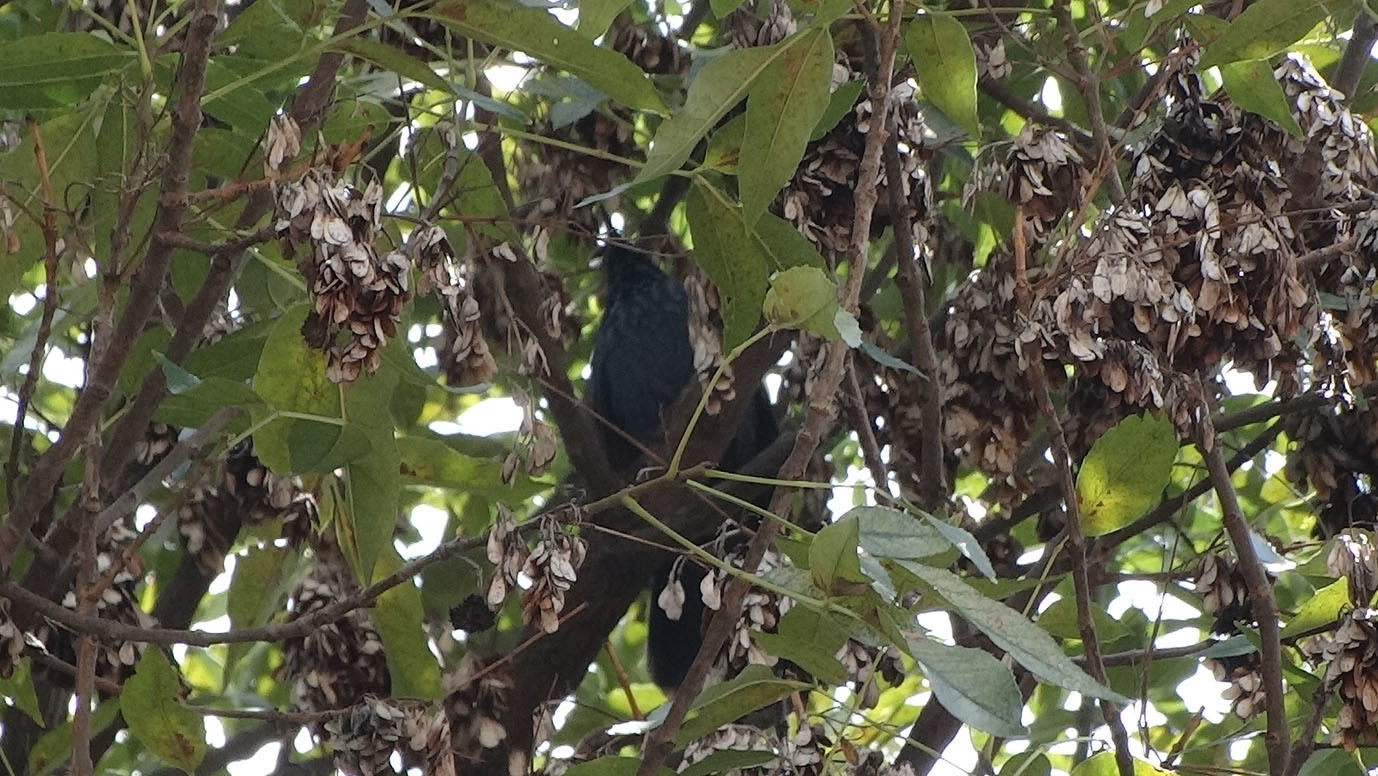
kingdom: Animalia
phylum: Chordata
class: Aves
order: Passeriformes
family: Mimidae
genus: Melanotis
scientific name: Melanotis caerulescens
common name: Blue mockingbird
